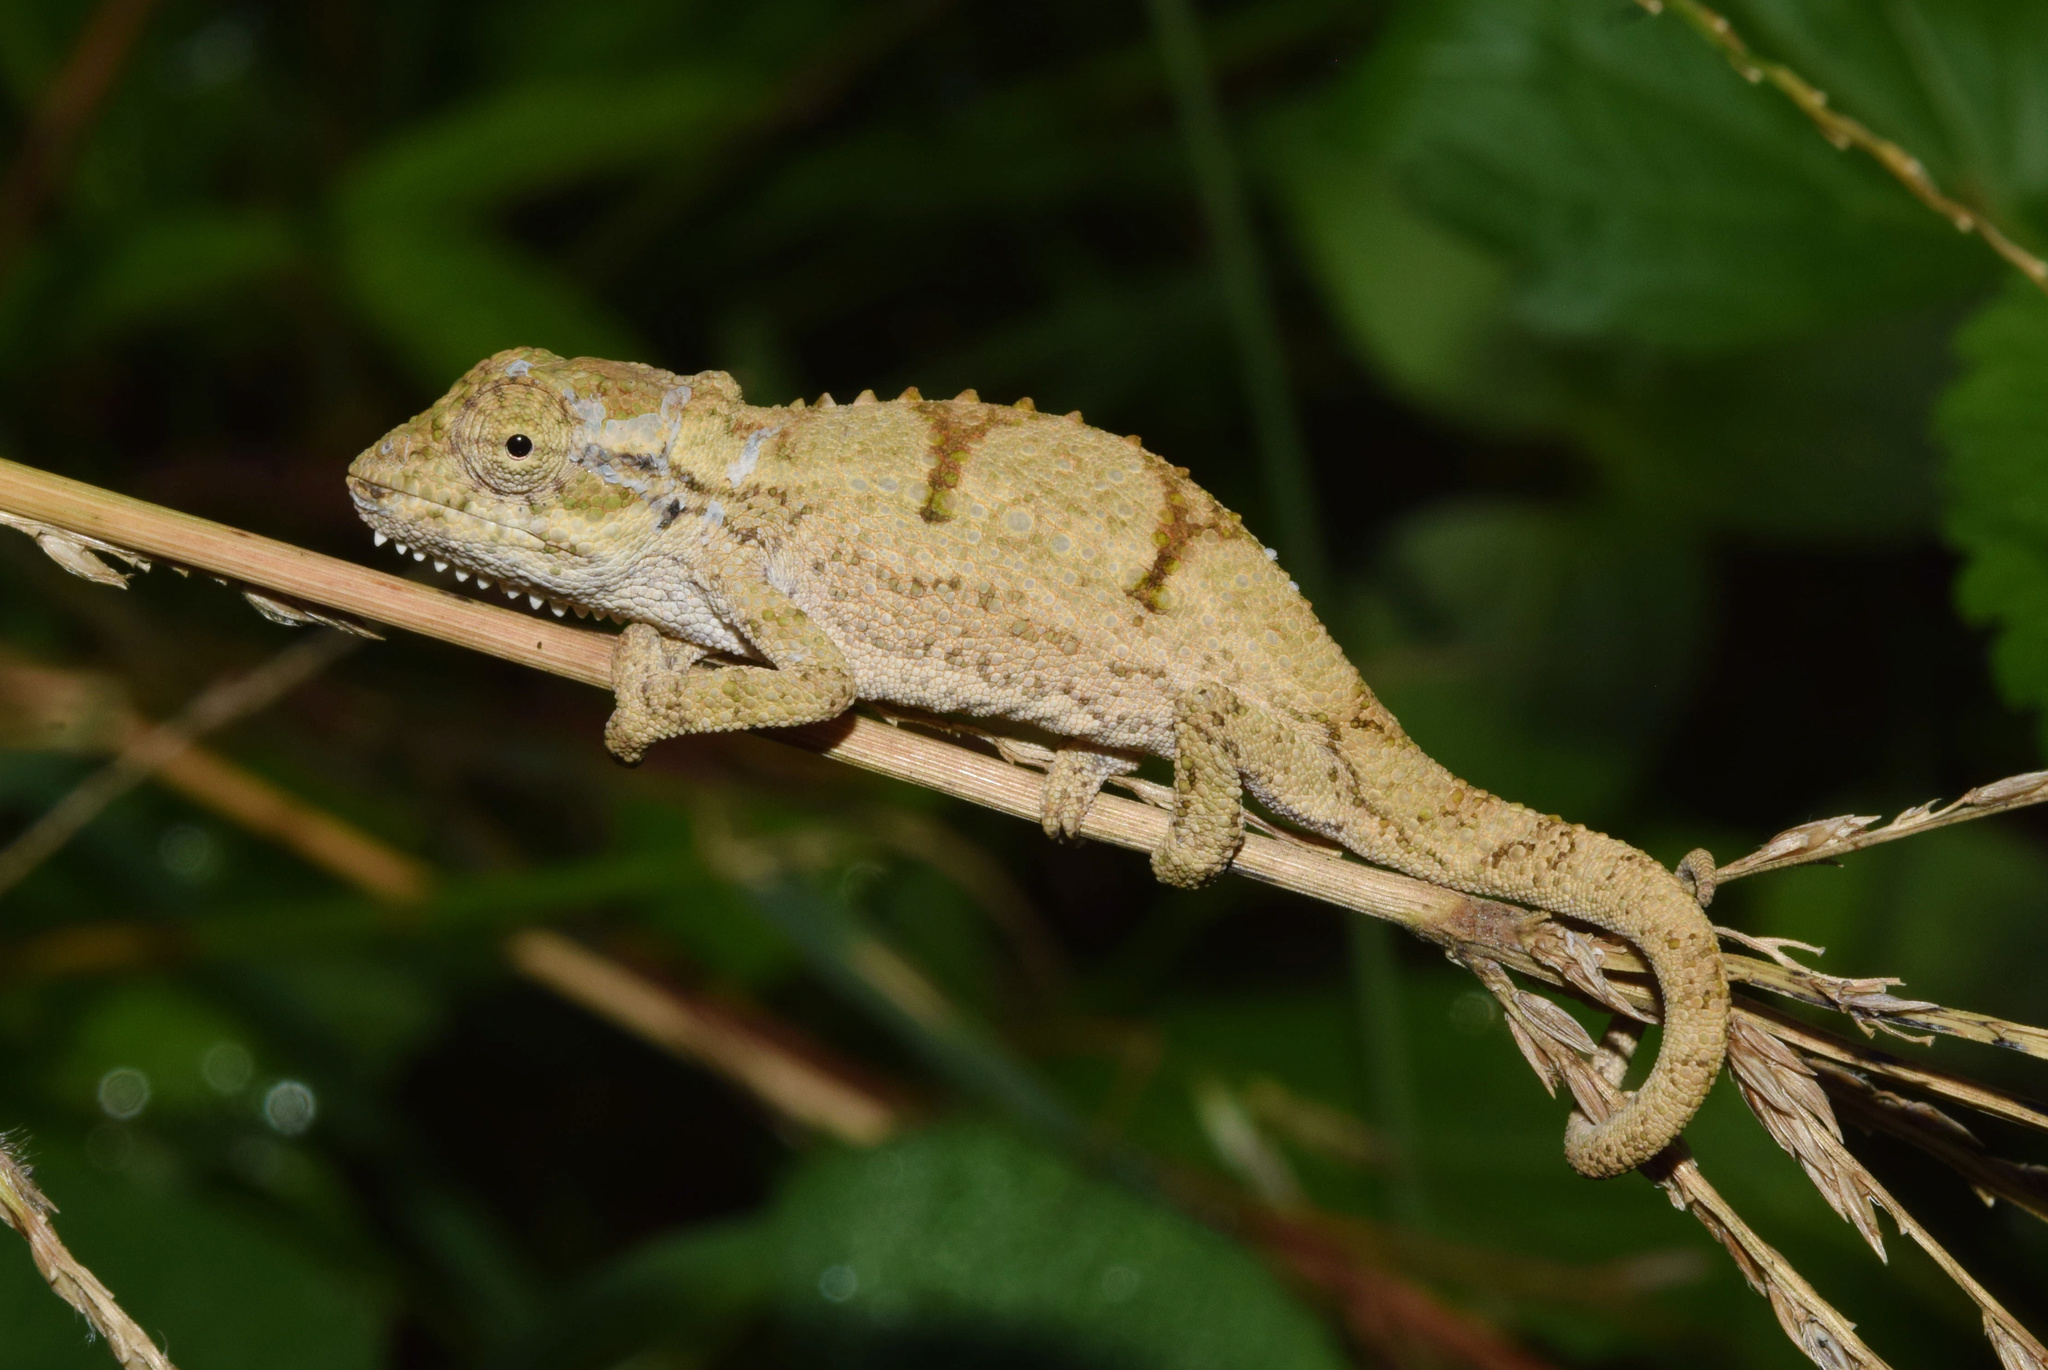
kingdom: Animalia
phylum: Chordata
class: Squamata
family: Chamaeleonidae
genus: Bradypodion
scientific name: Bradypodion melanocephalum
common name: Black-headed dwarf chameleon
